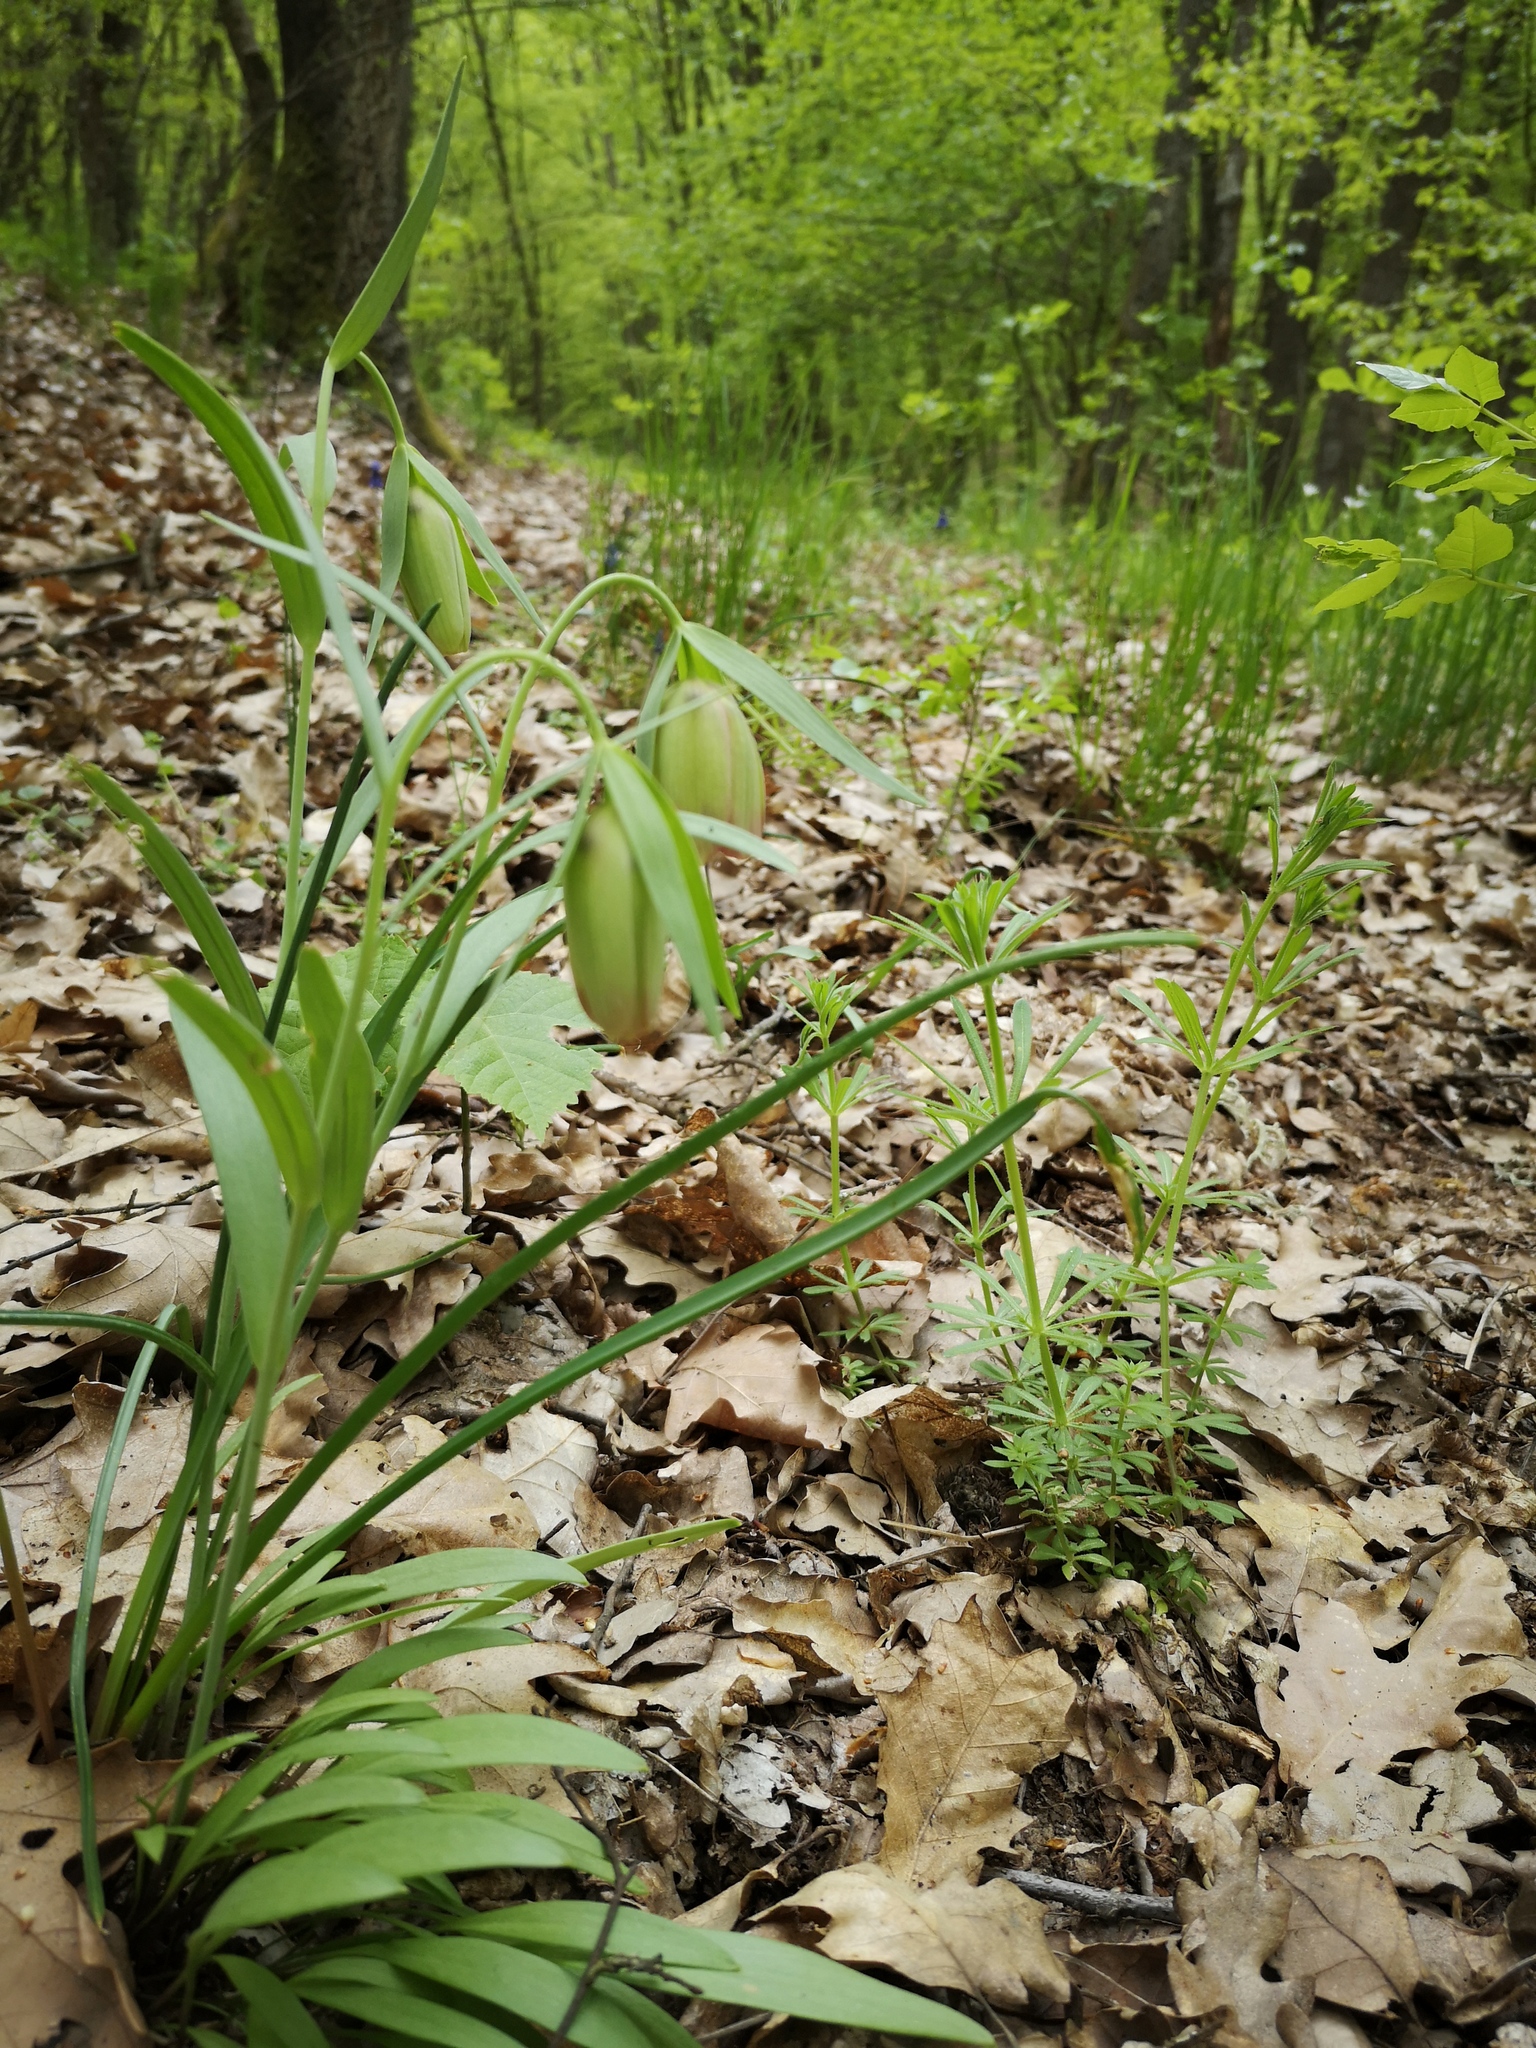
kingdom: Plantae
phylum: Tracheophyta
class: Liliopsida
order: Liliales
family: Liliaceae
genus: Fritillaria
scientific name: Fritillaria pontica
